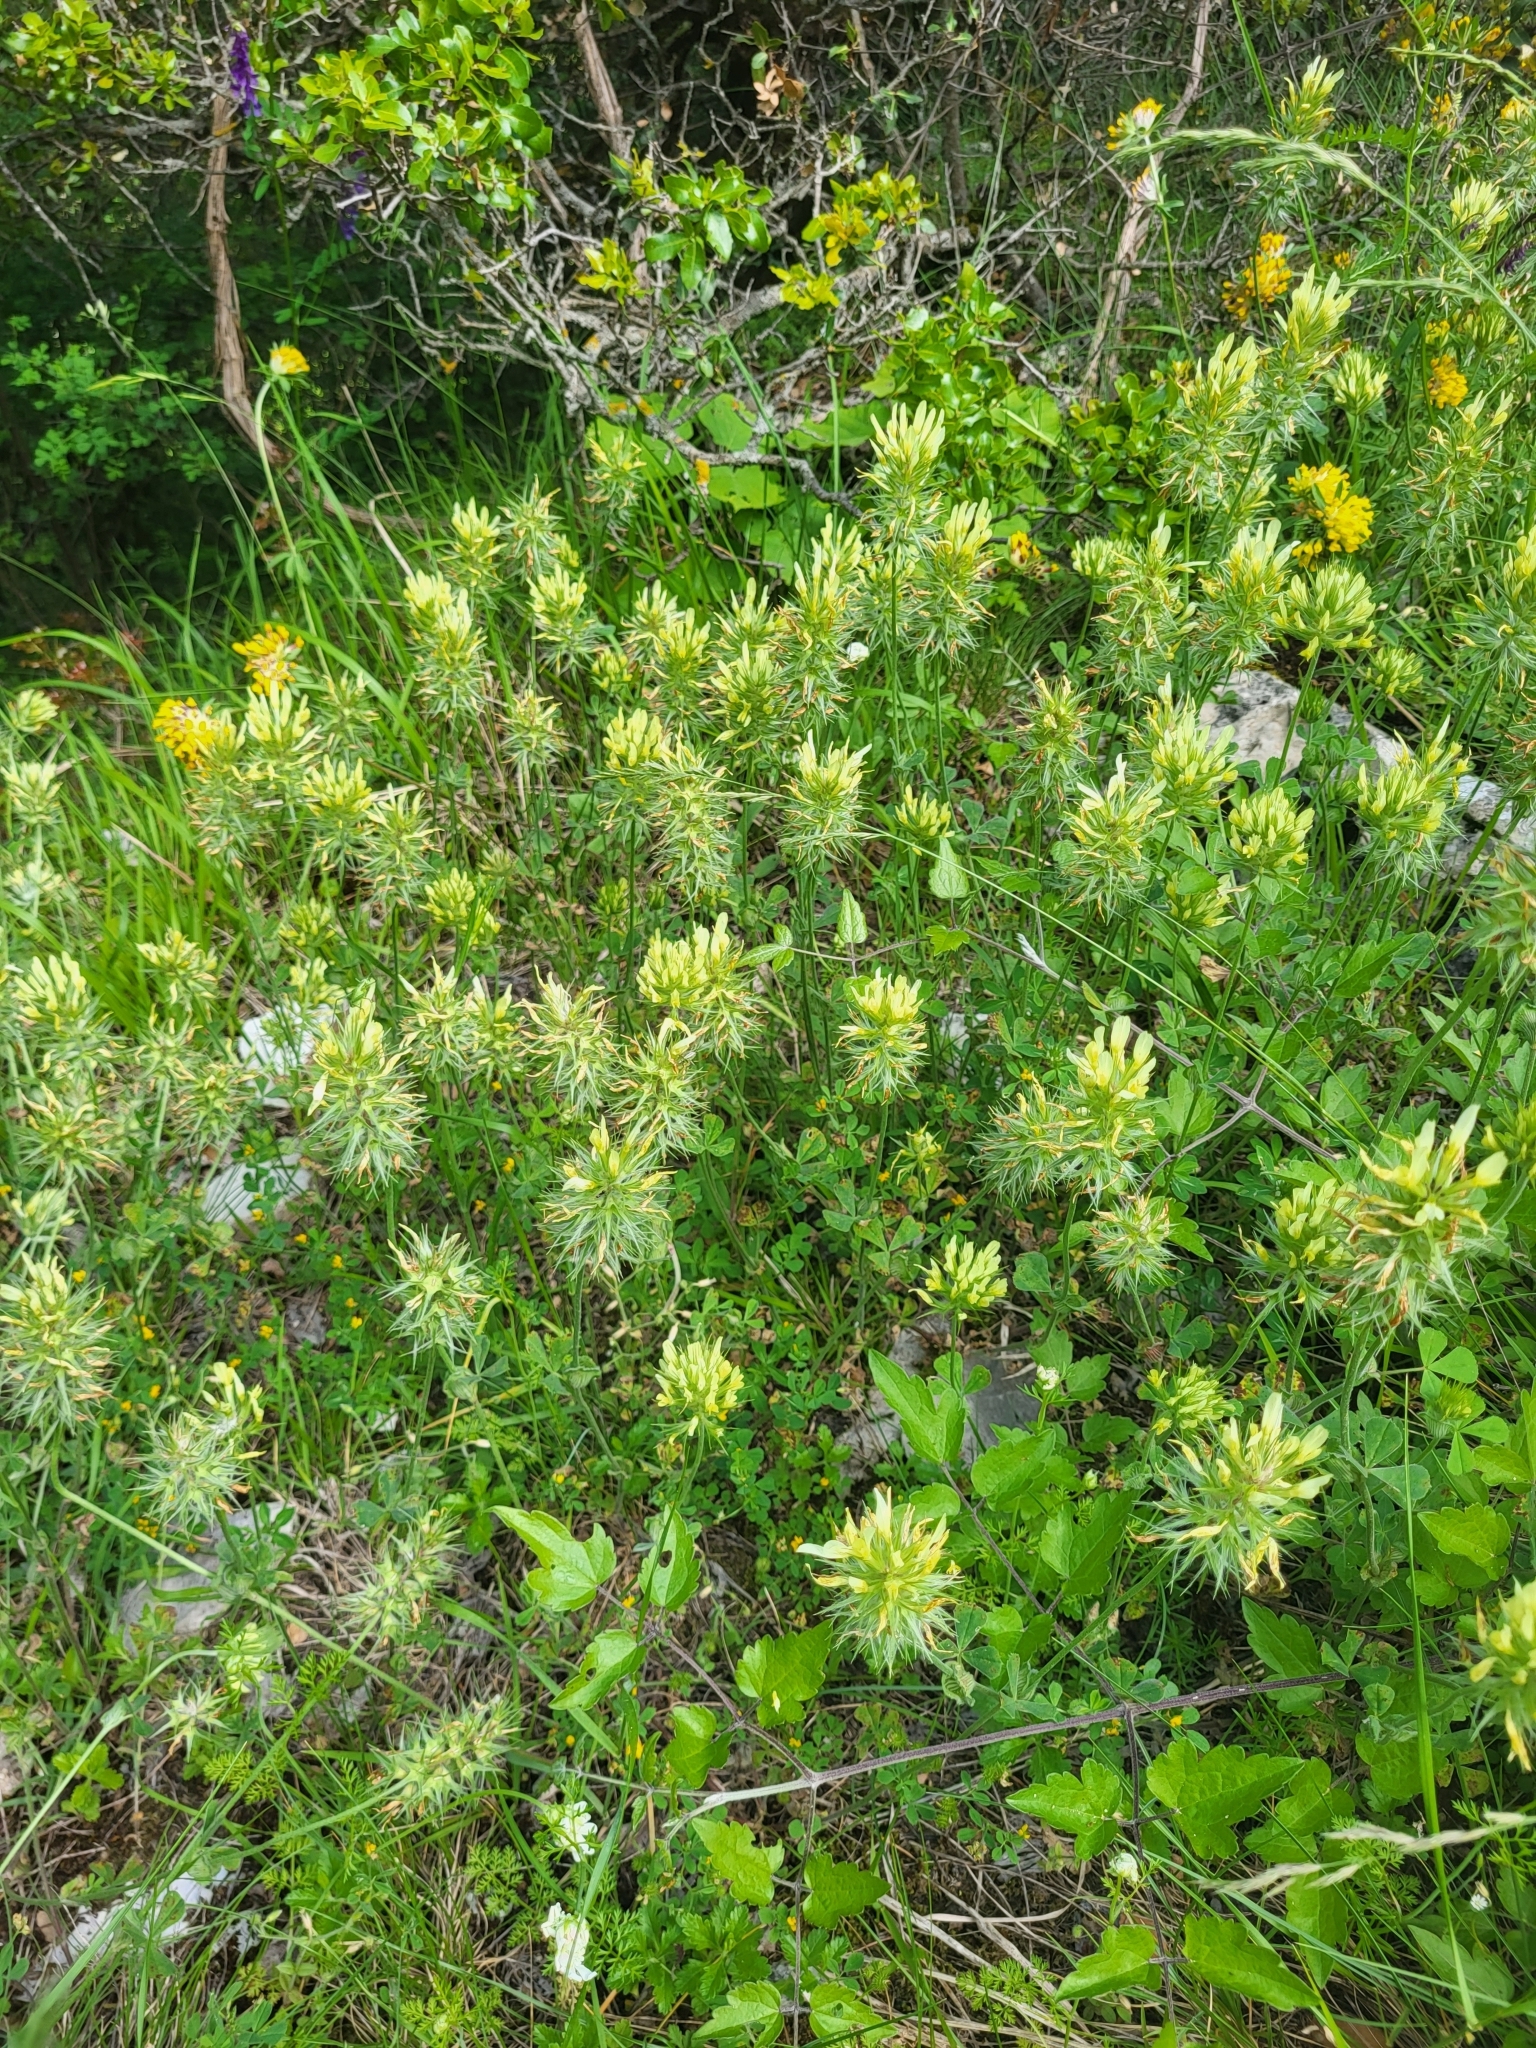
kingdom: Plantae
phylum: Tracheophyta
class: Magnoliopsida
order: Fabales
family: Fabaceae
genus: Trifolium
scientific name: Trifolium xanthinum
